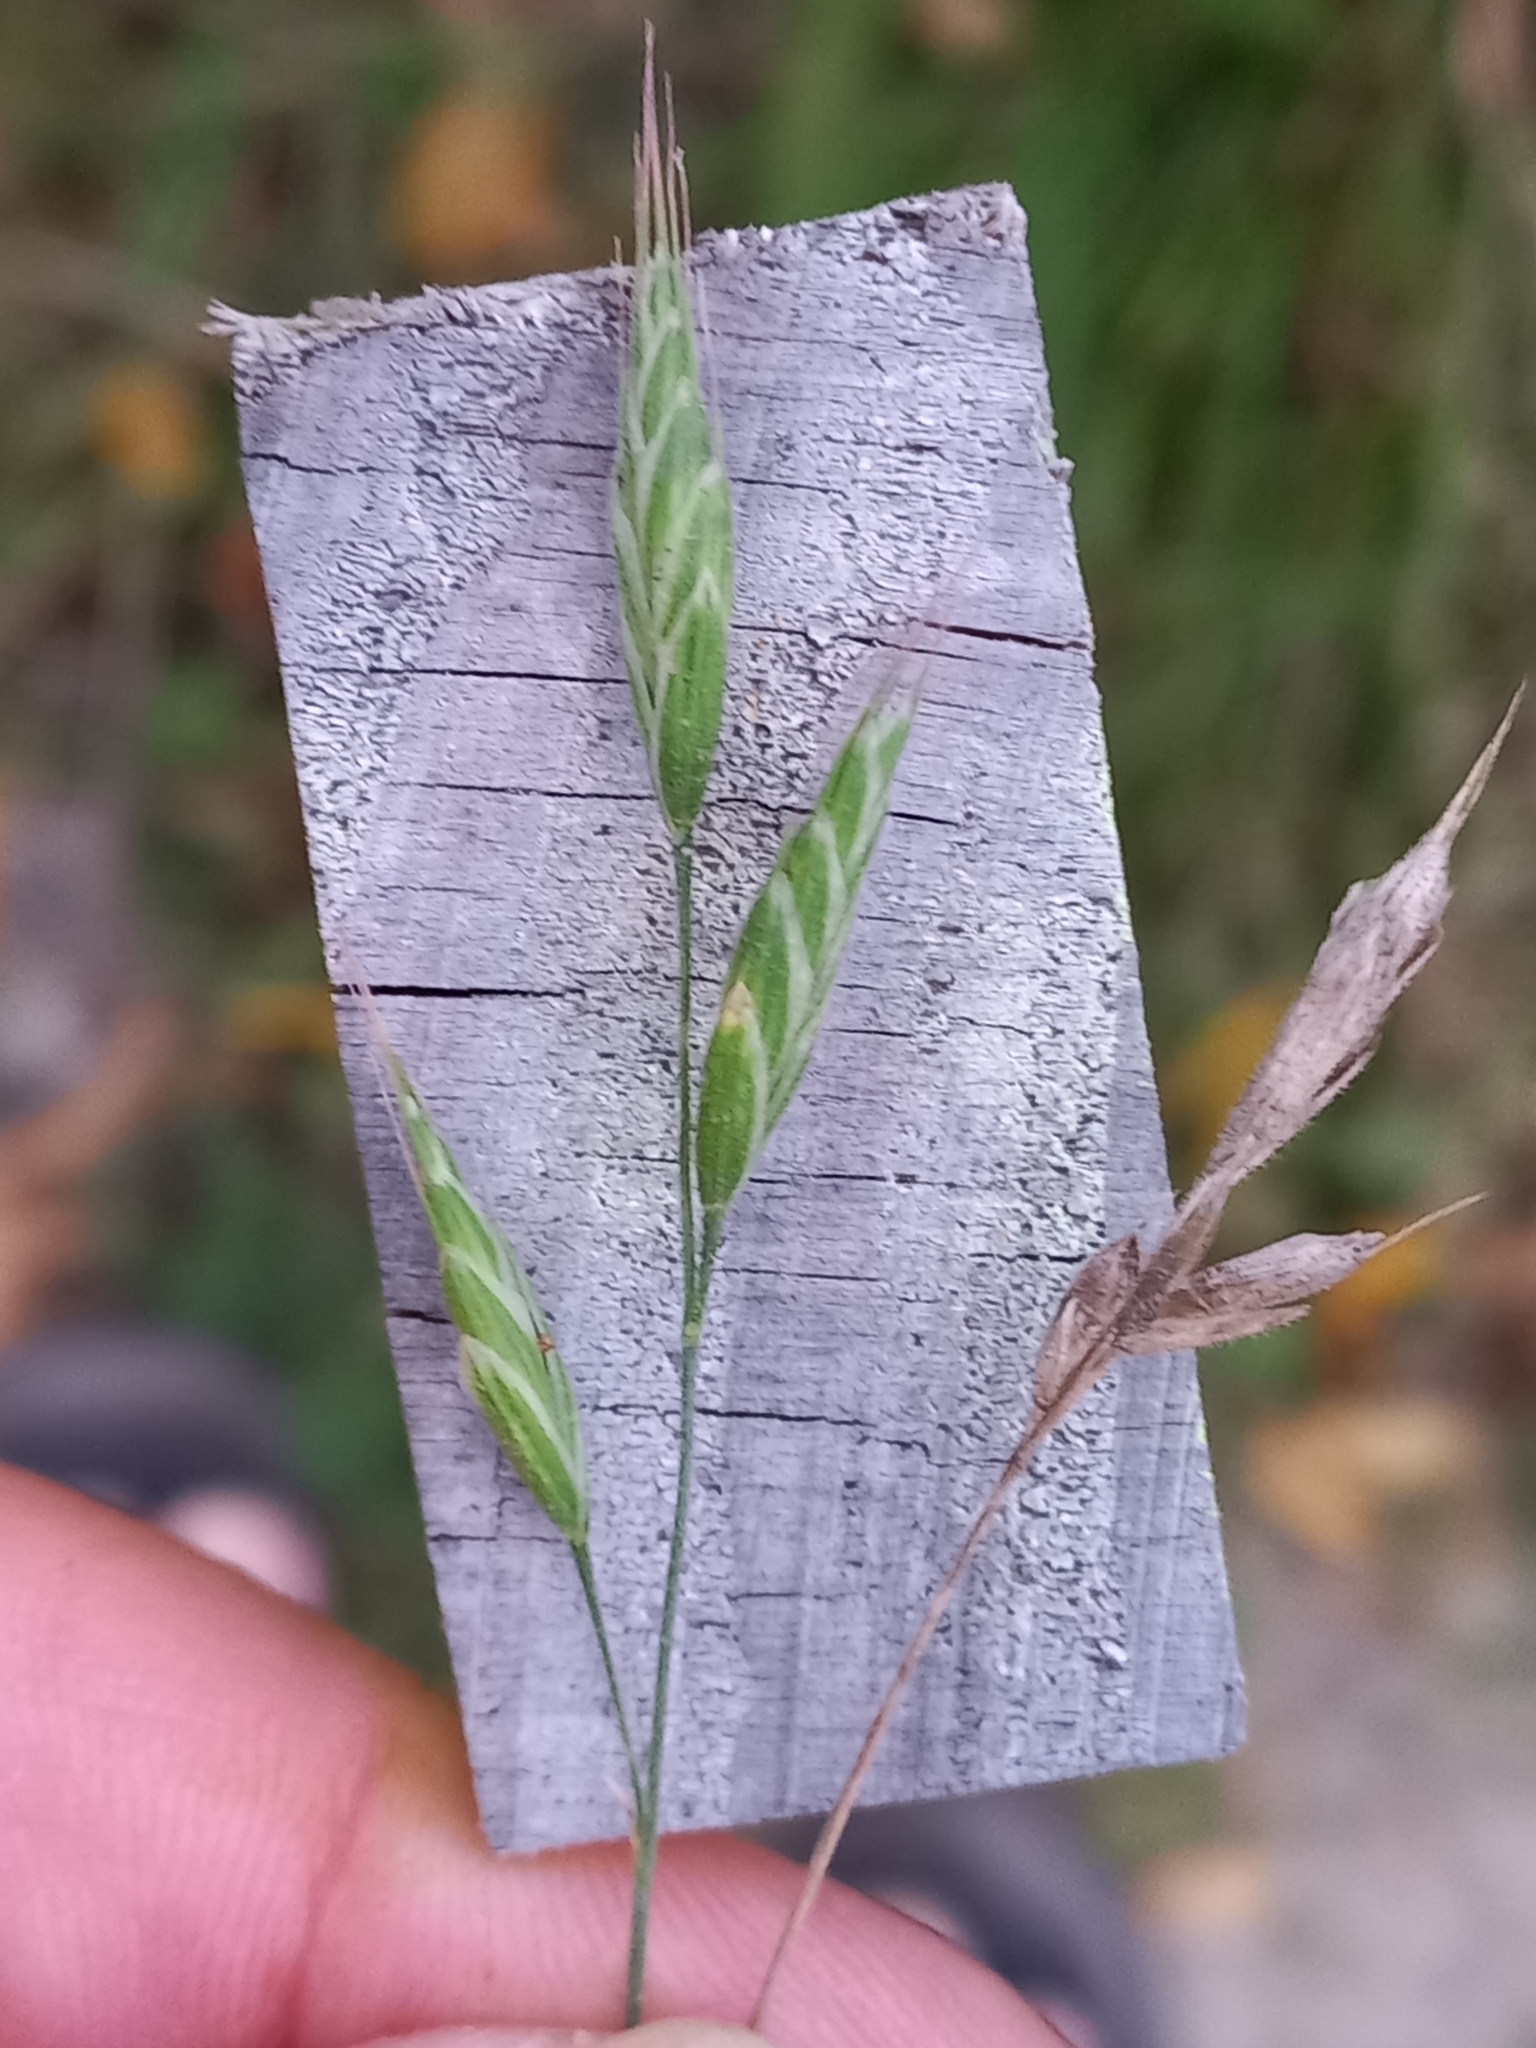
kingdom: Plantae
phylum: Tracheophyta
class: Liliopsida
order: Poales
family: Poaceae
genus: Bromus
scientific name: Bromus hordeaceus
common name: Soft brome
